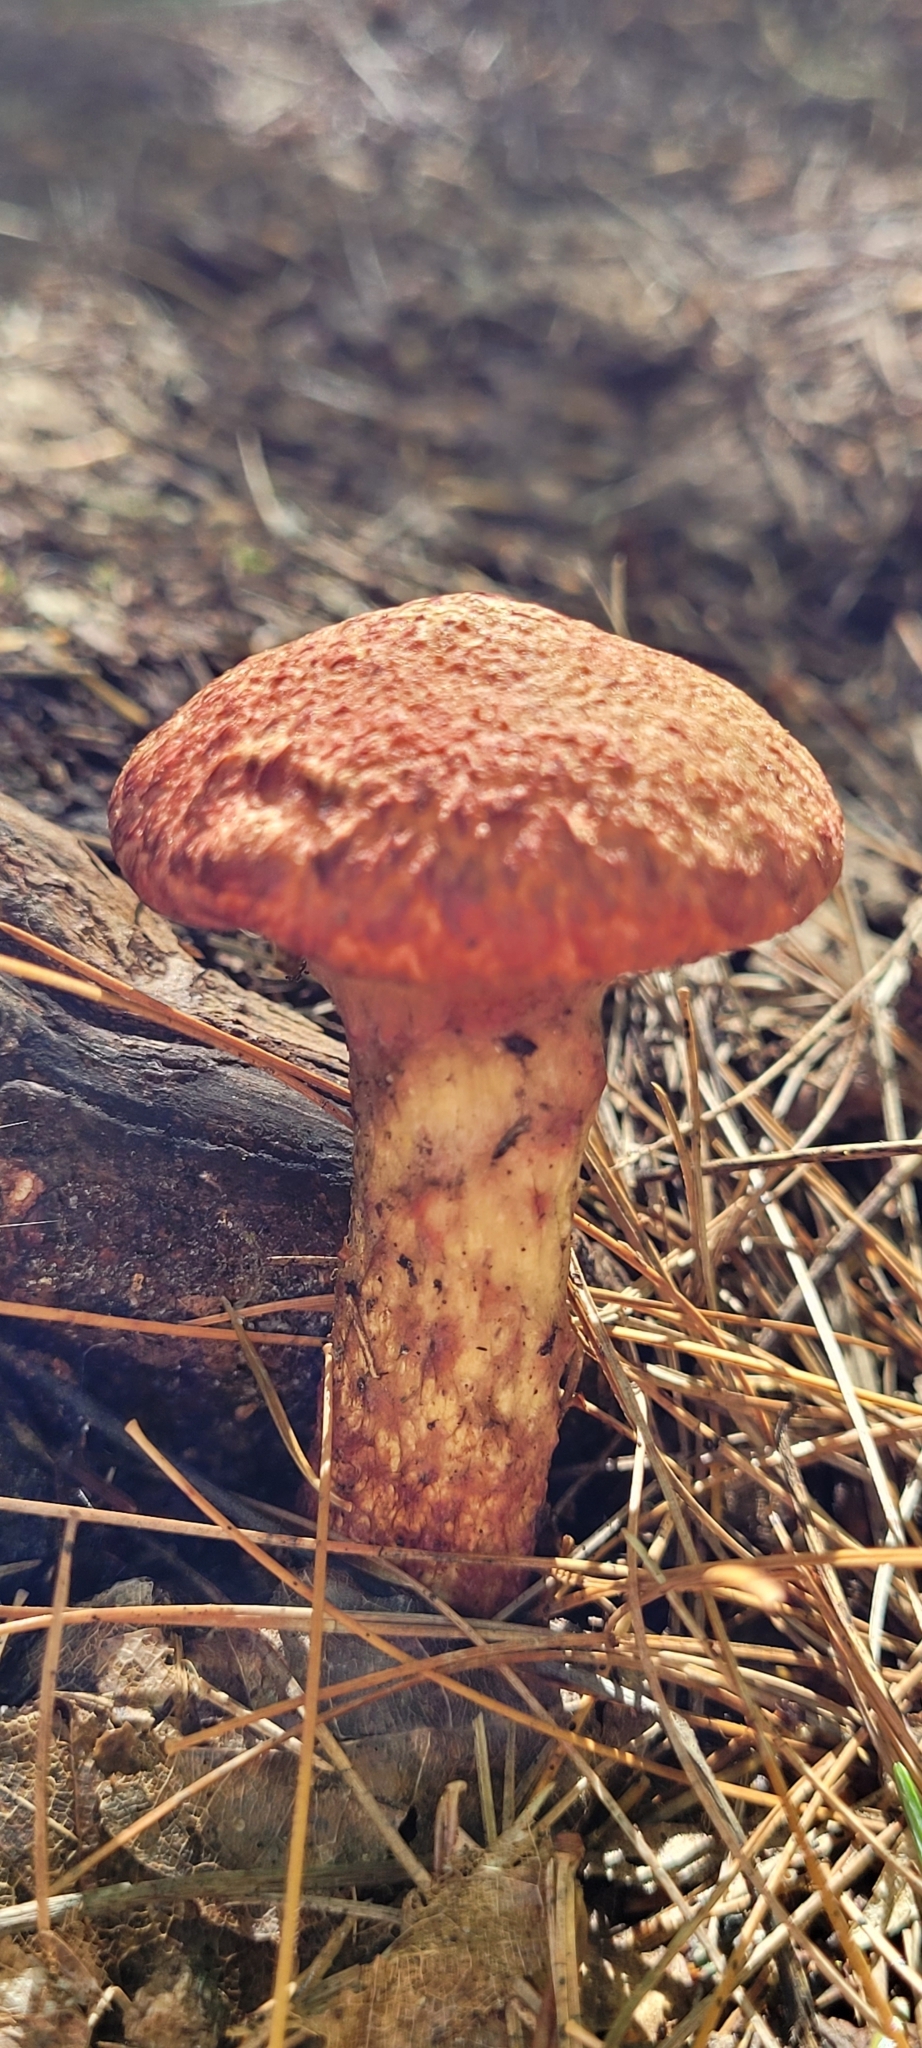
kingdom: Fungi
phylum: Basidiomycota
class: Agaricomycetes
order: Boletales
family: Suillaceae
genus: Suillus
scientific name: Suillus spraguei
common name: Painted suillus
